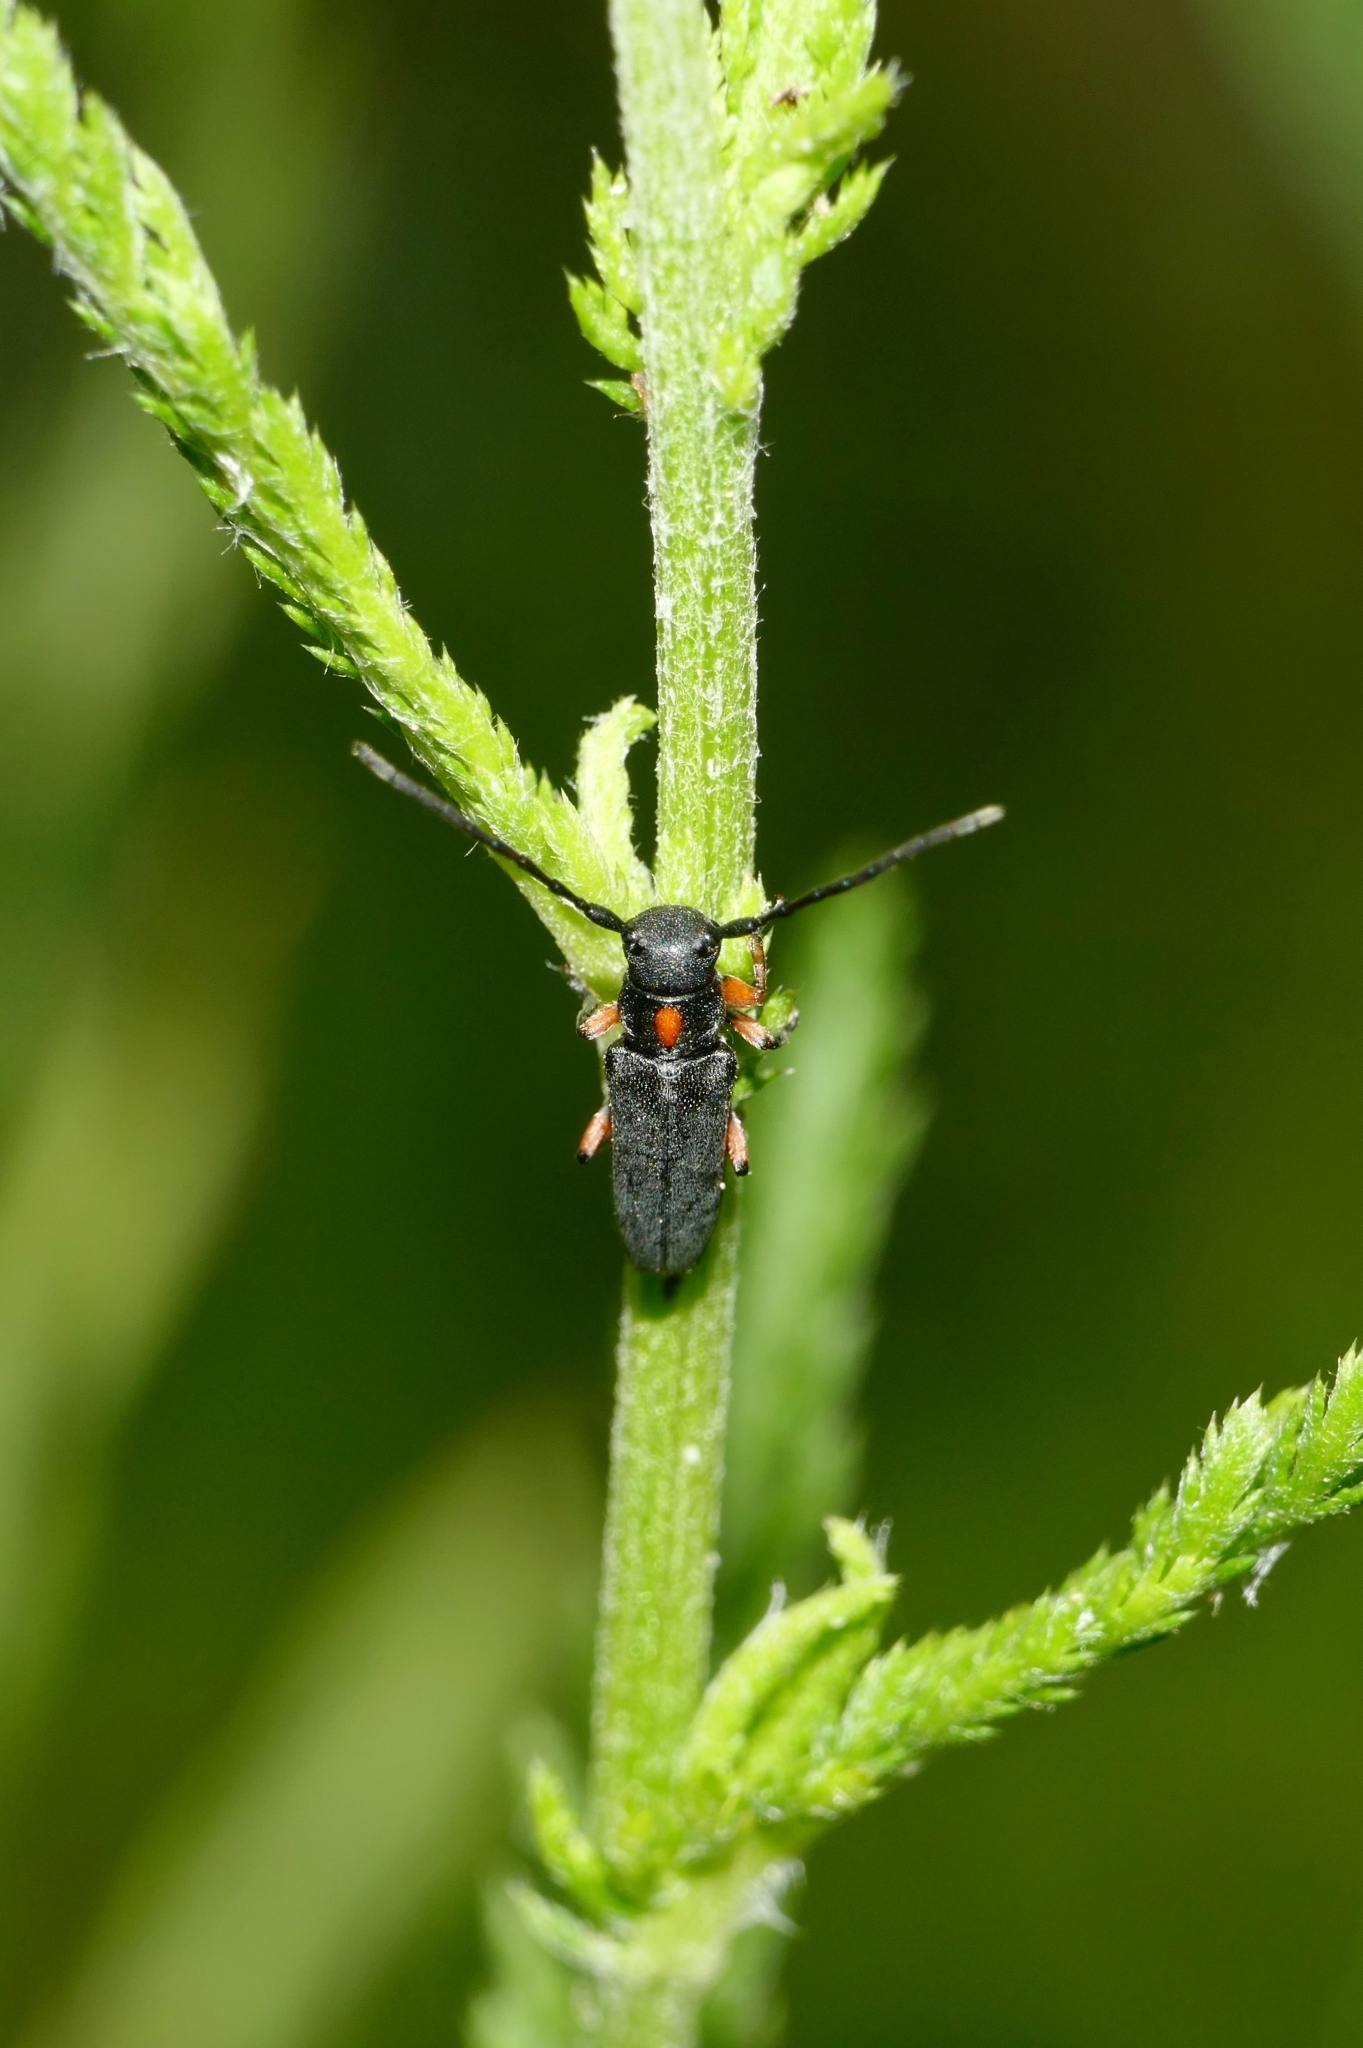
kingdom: Animalia
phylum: Arthropoda
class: Insecta
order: Coleoptera
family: Cerambycidae
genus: Phytoecia
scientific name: Phytoecia pustulata
